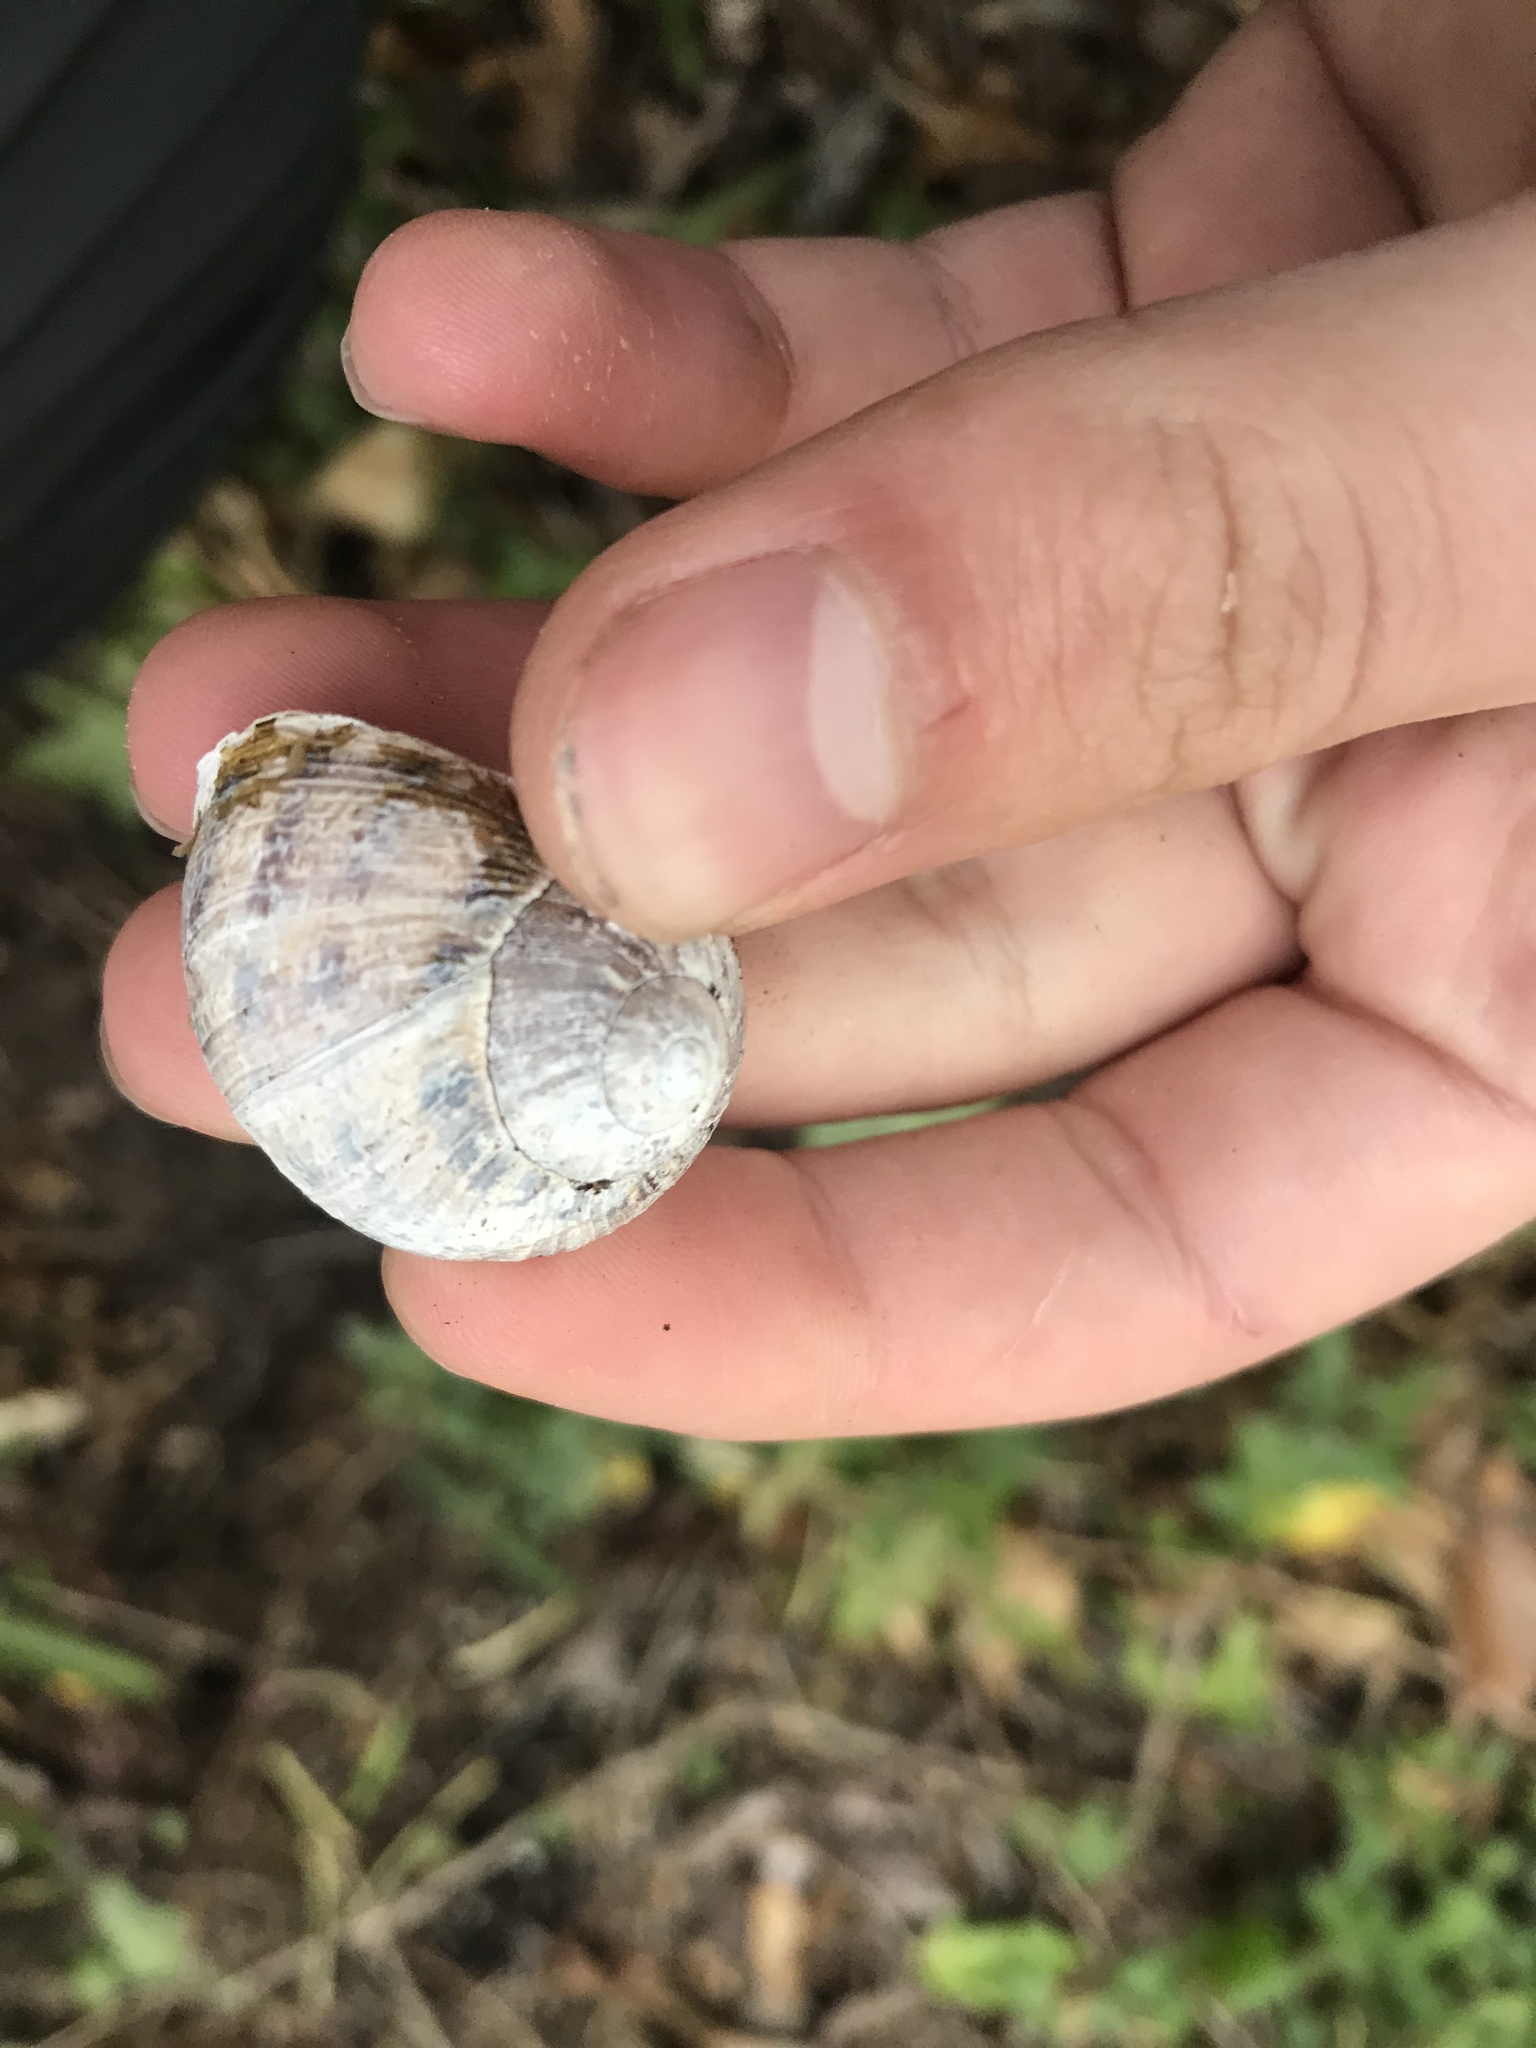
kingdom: Animalia
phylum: Mollusca
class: Gastropoda
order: Stylommatophora
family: Helicidae
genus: Cornu
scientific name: Cornu aspersum
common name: Brown garden snail
